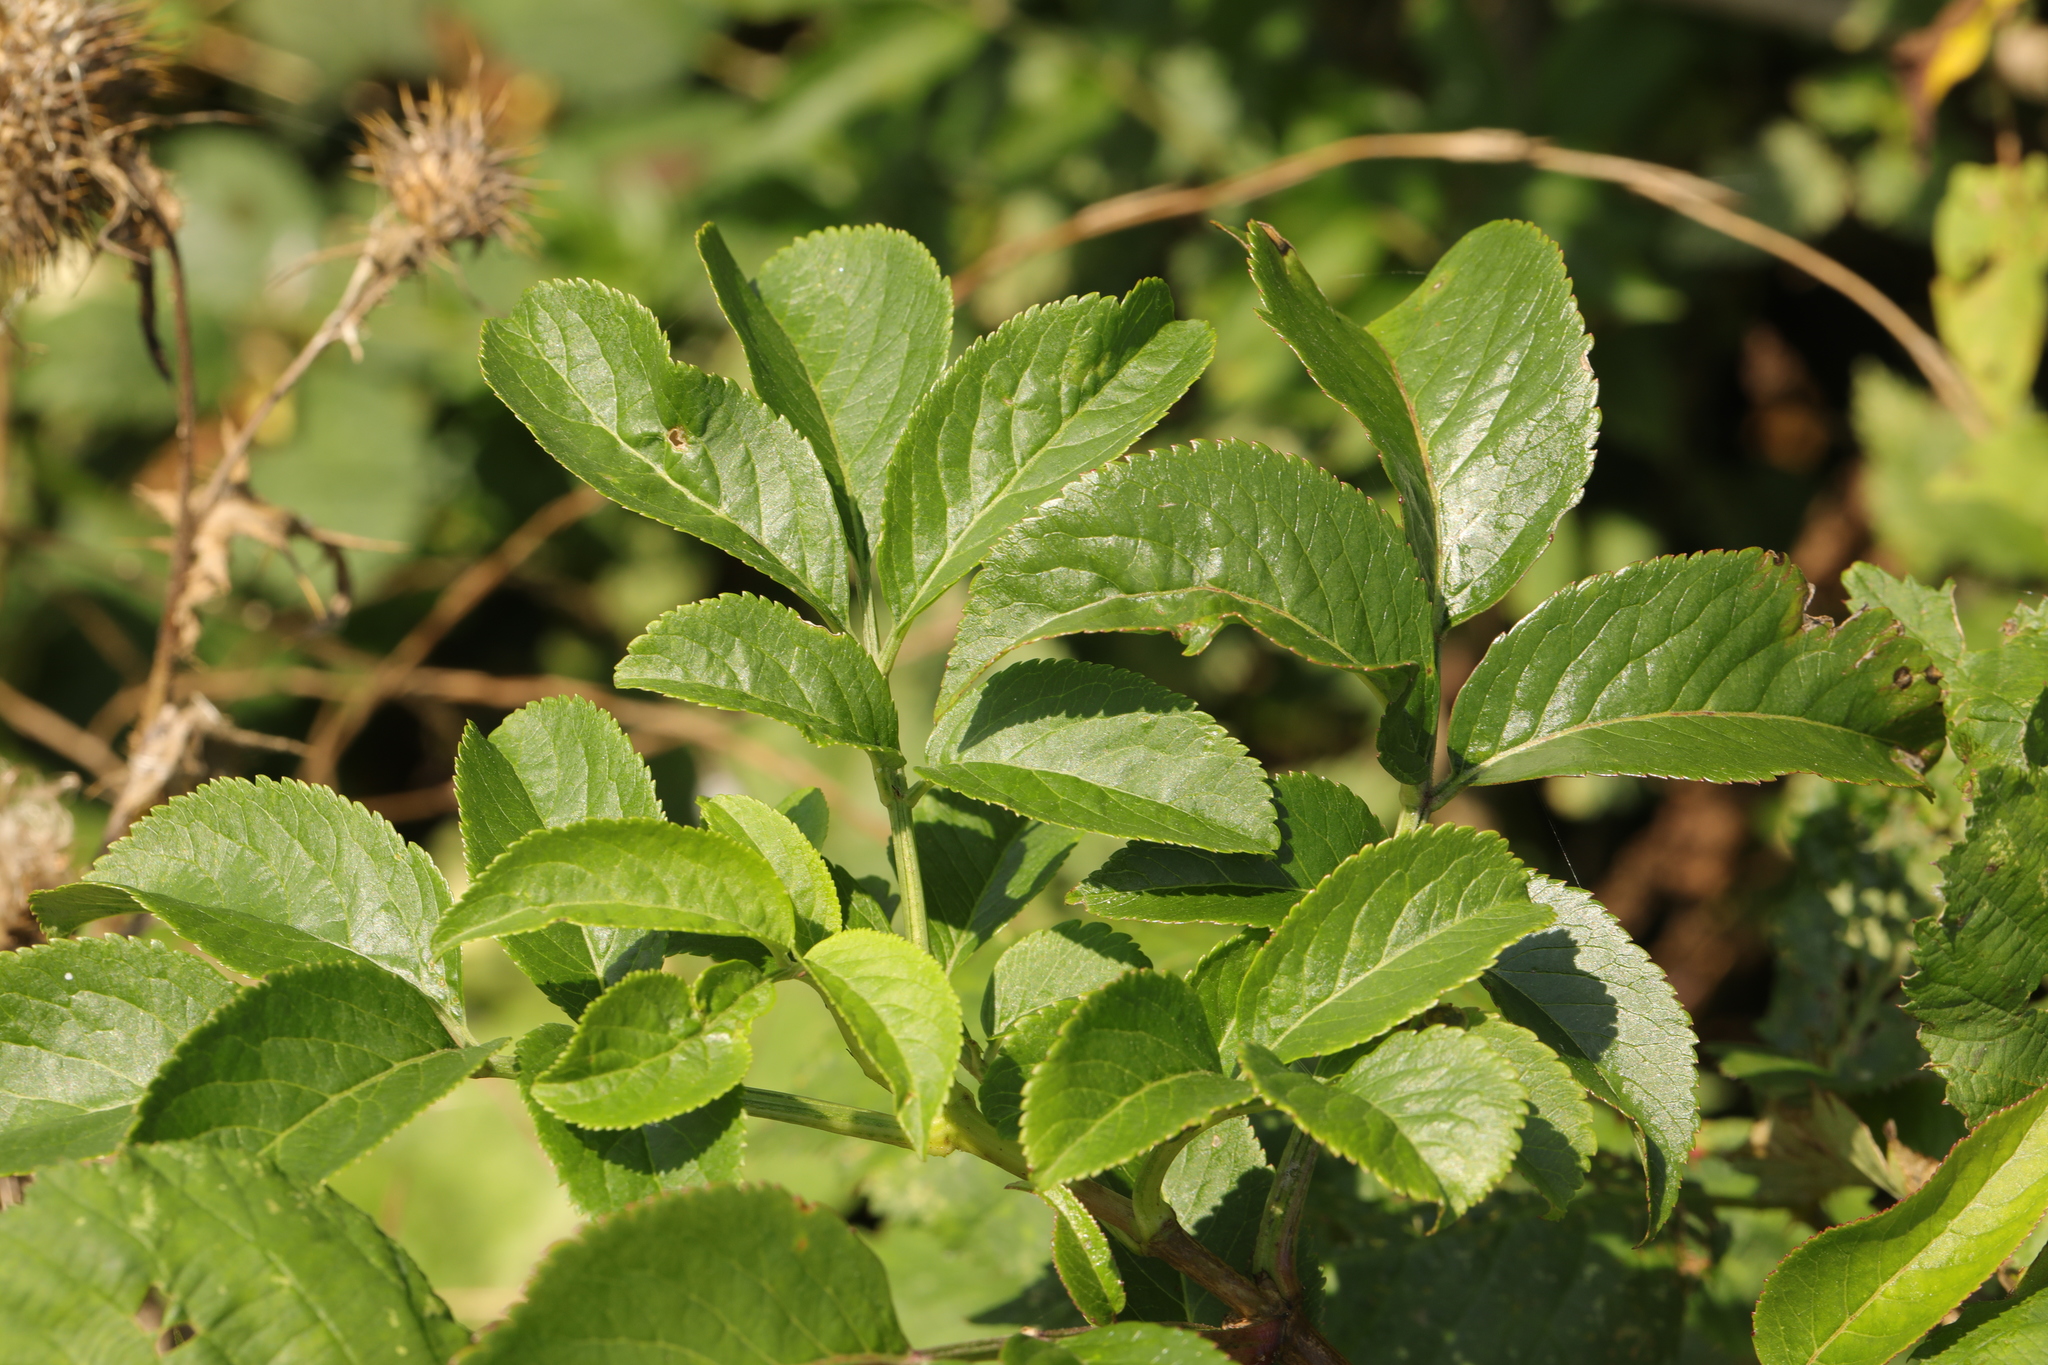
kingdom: Plantae
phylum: Tracheophyta
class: Magnoliopsida
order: Dipsacales
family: Viburnaceae
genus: Sambucus
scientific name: Sambucus nigra
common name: Elder
